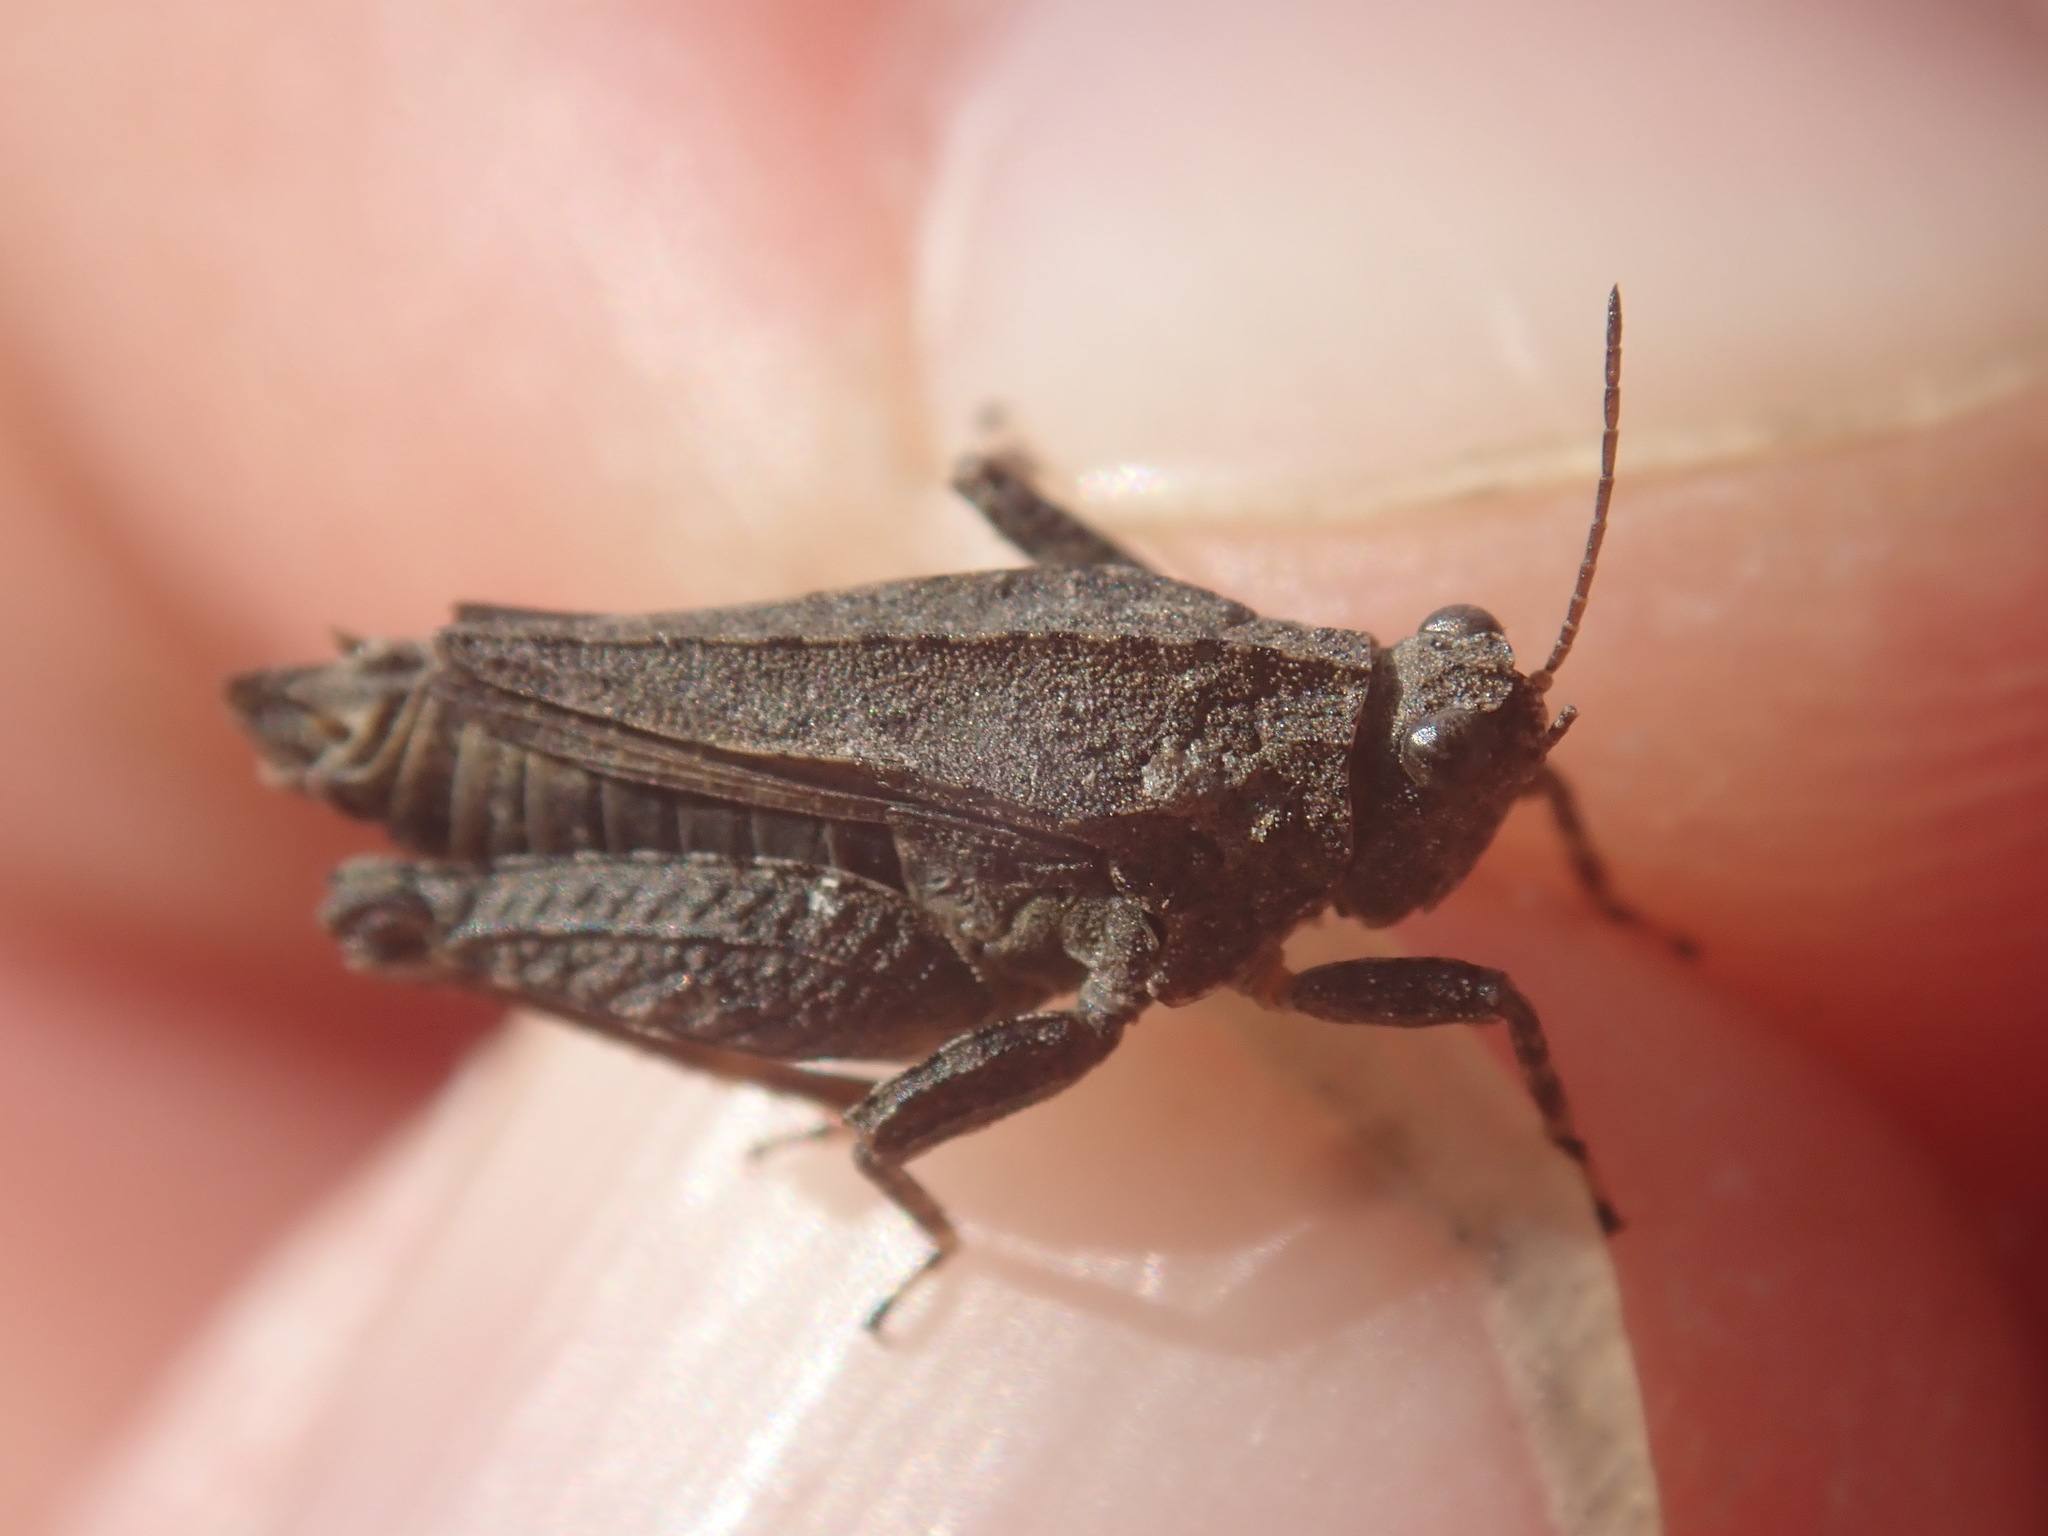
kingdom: Animalia
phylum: Arthropoda
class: Insecta
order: Orthoptera
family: Tetrigidae
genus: Tetrix
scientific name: Tetrix tenuicornis
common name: Long-horned groundhopper
